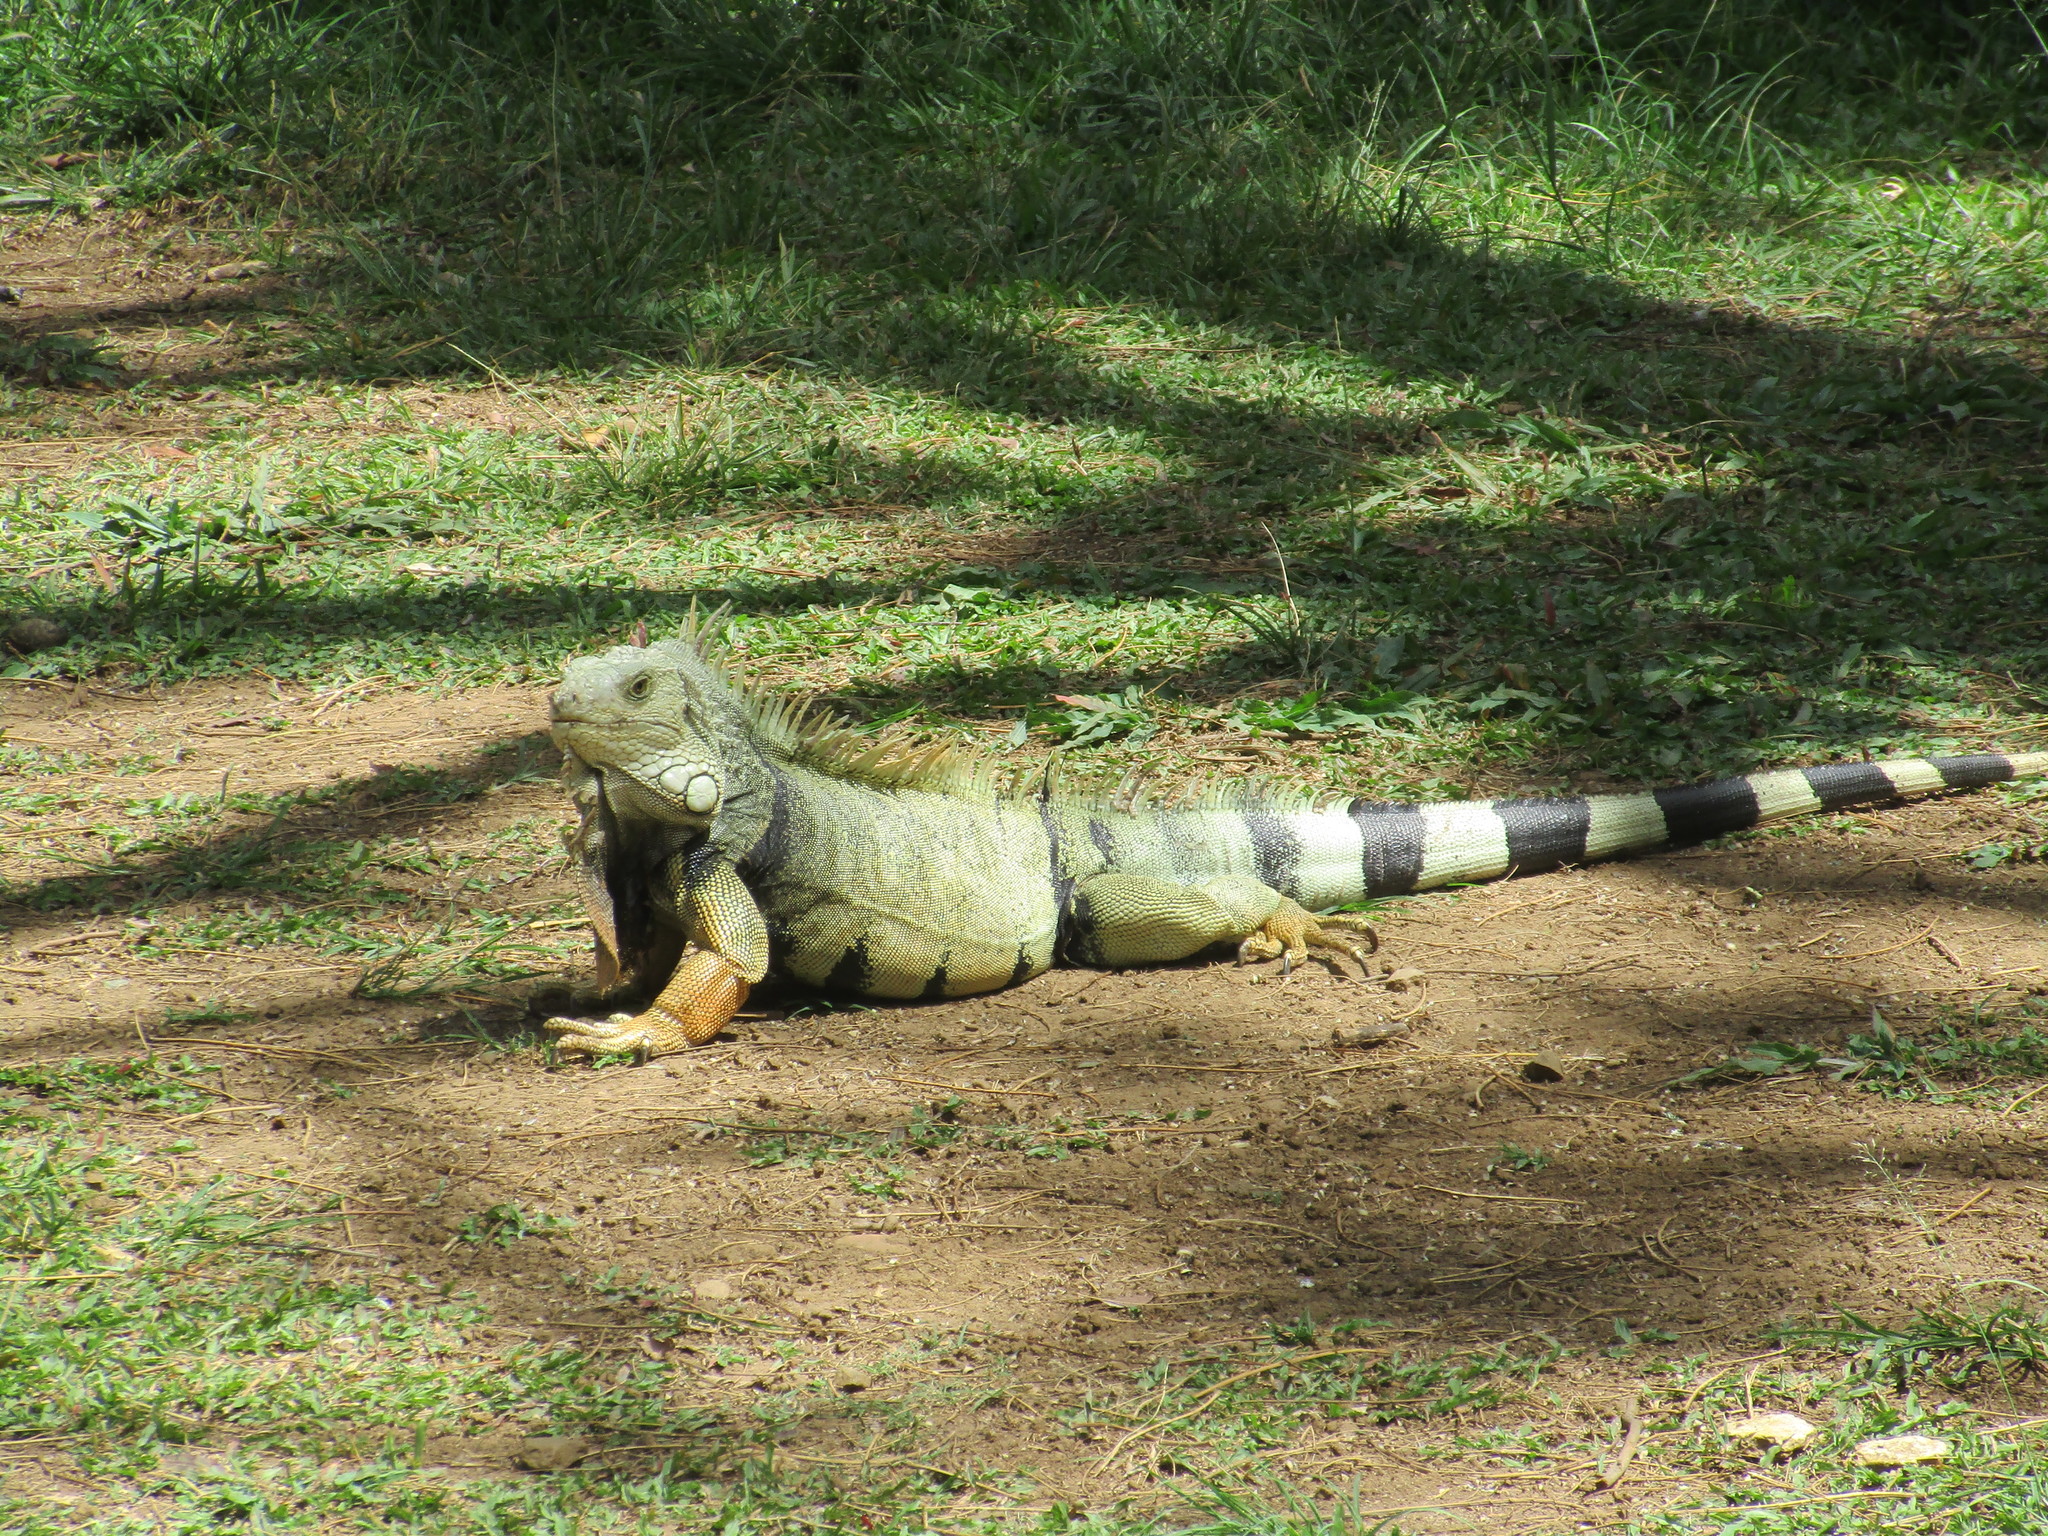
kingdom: Animalia
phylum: Chordata
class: Squamata
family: Iguanidae
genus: Iguana
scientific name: Iguana iguana
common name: Green iguana
